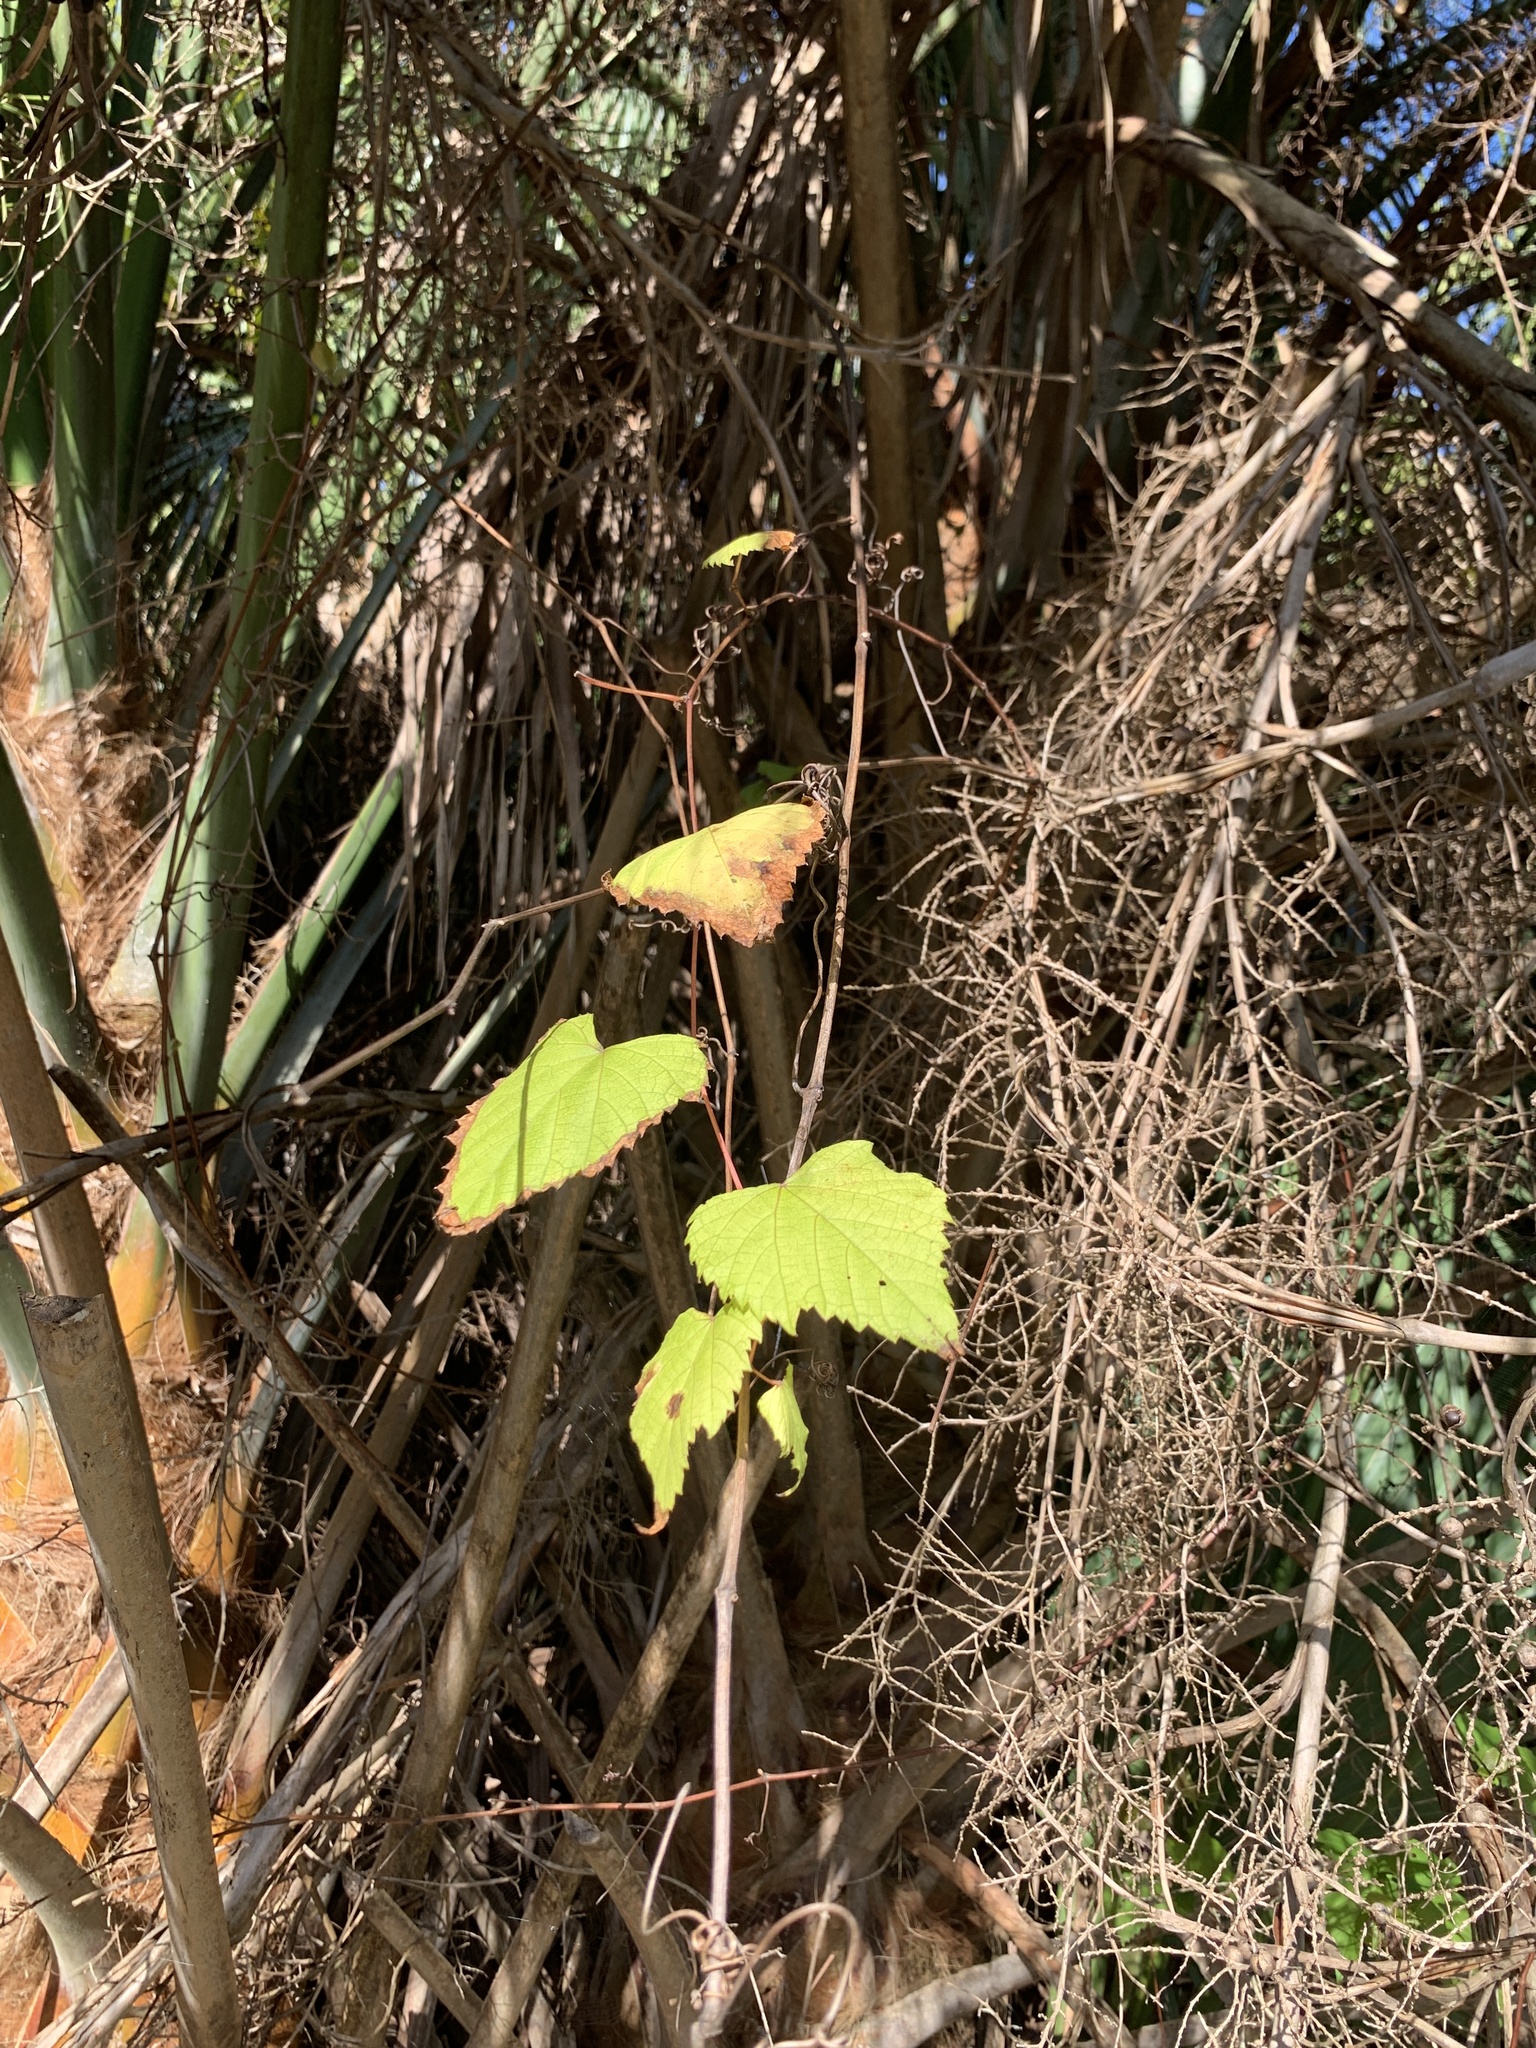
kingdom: Plantae
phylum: Tracheophyta
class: Magnoliopsida
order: Vitales
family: Vitaceae
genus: Vitis
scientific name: Vitis rotundifolia
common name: Muscadine grape
